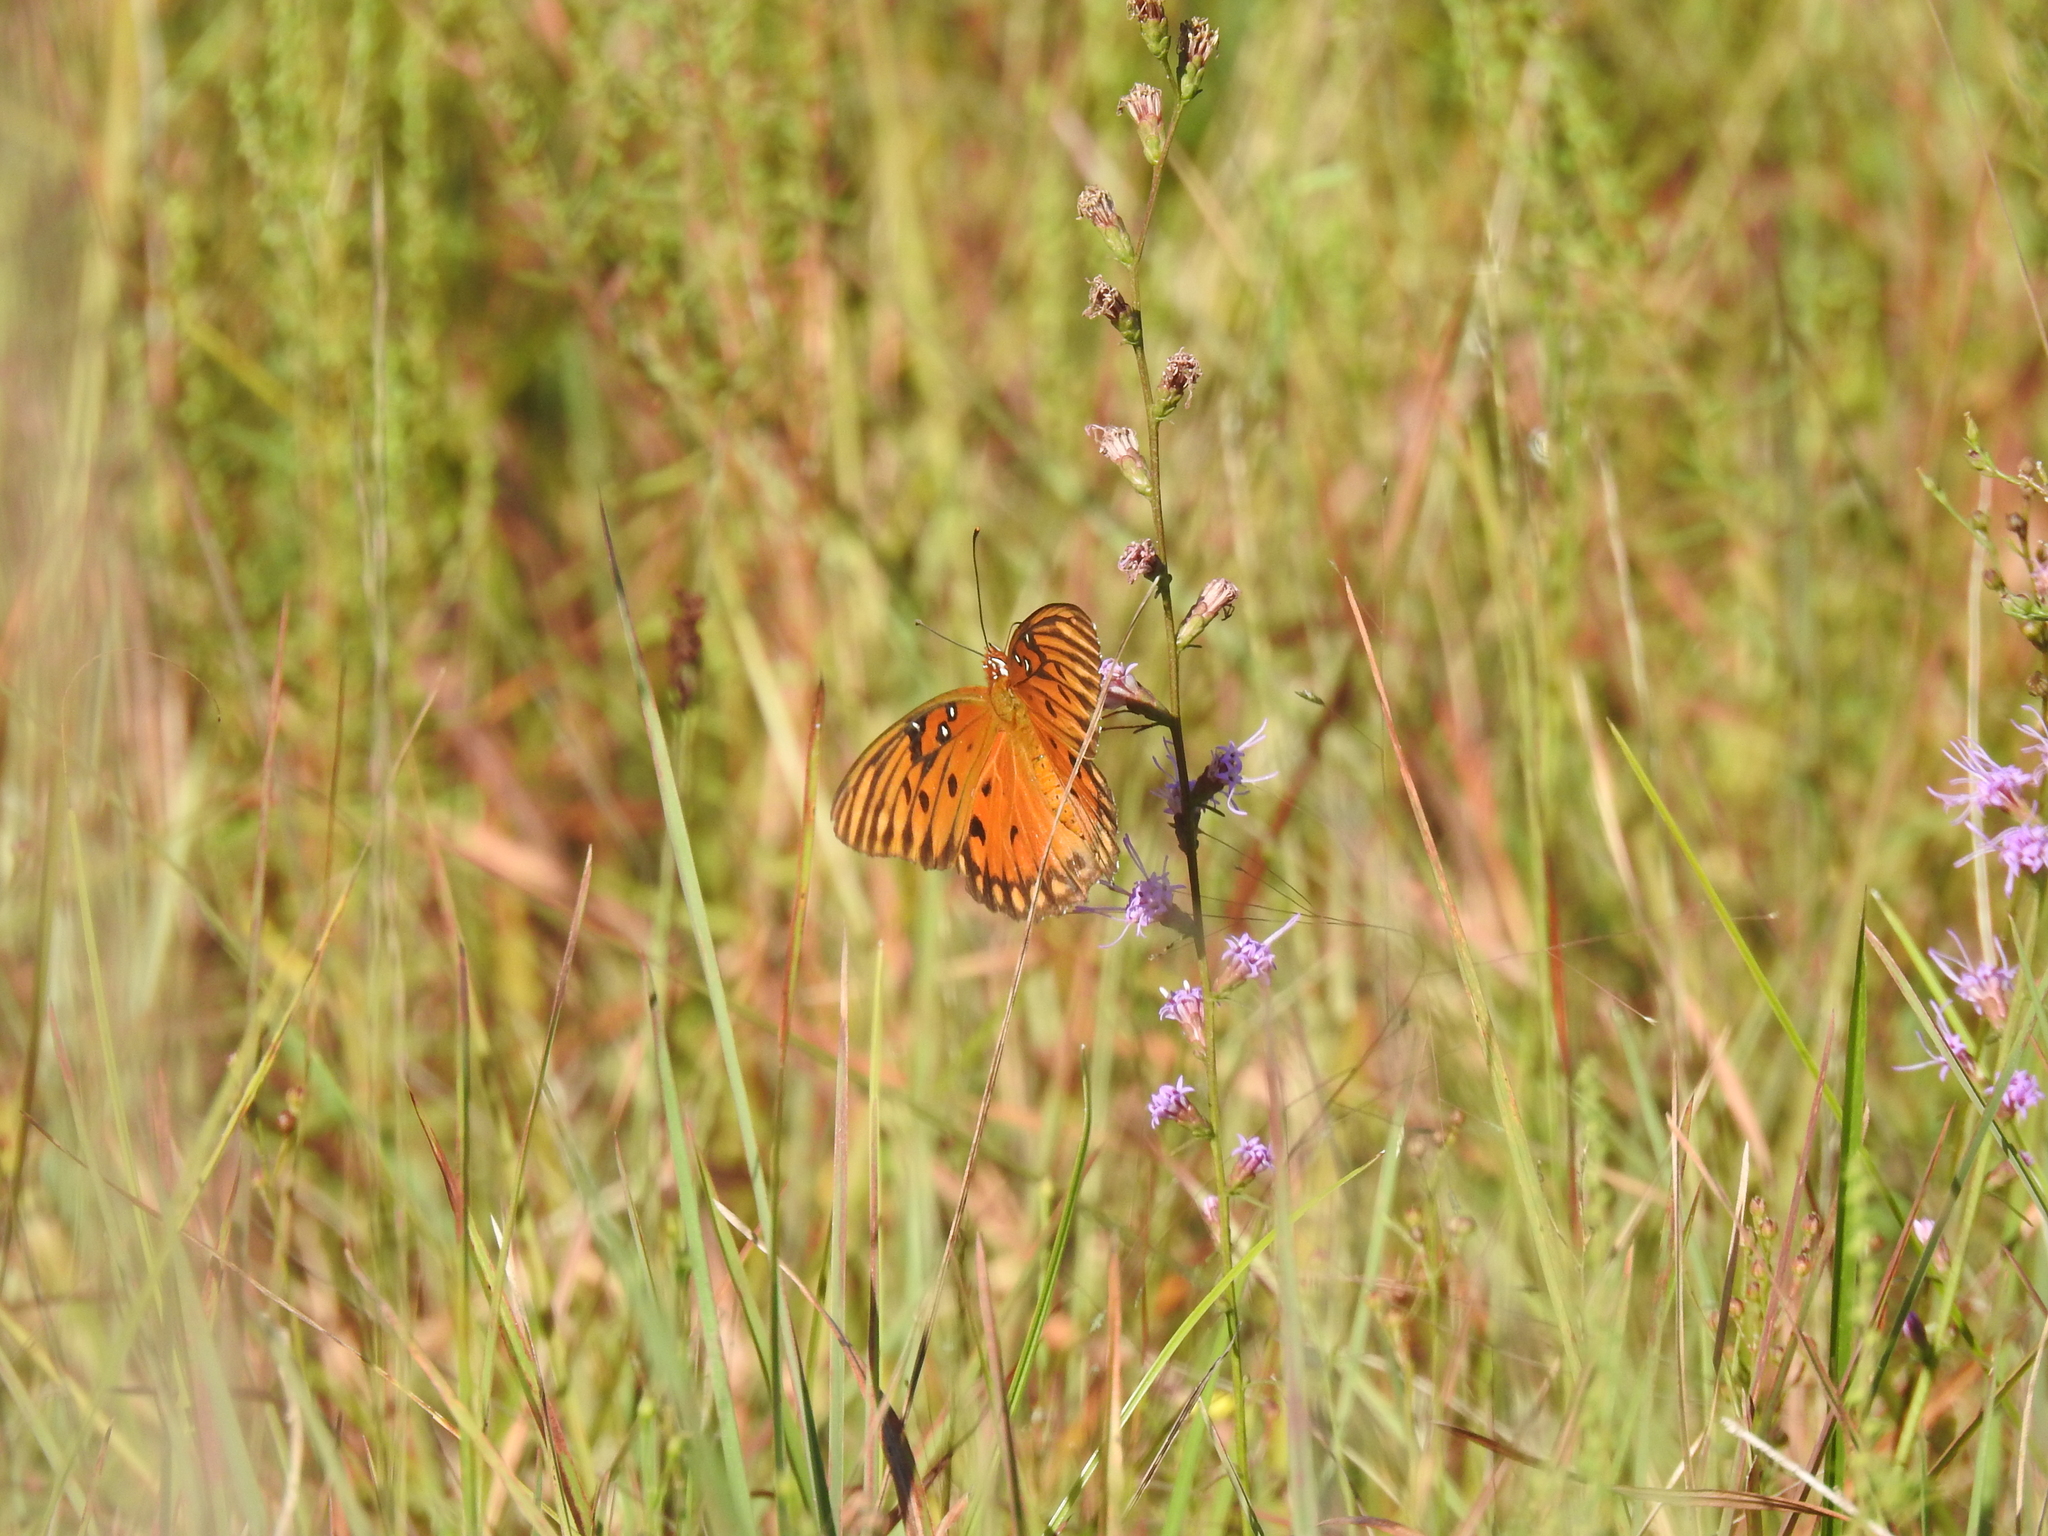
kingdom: Animalia
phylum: Arthropoda
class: Insecta
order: Lepidoptera
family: Nymphalidae
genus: Dione
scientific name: Dione vanillae
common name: Gulf fritillary
